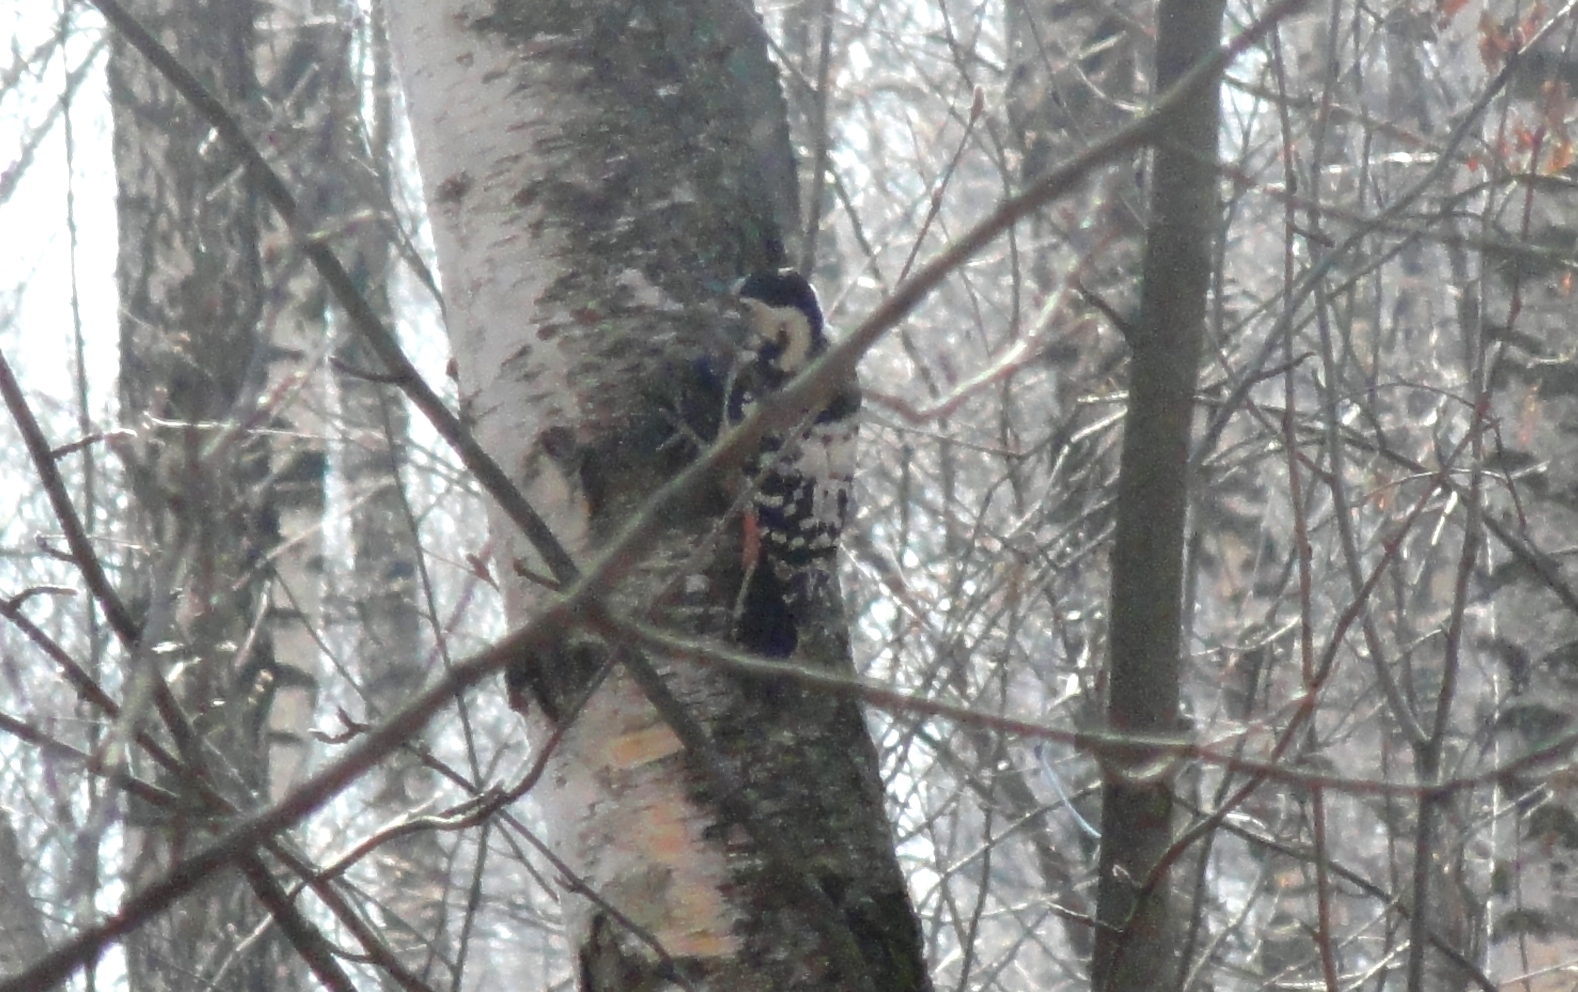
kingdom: Animalia
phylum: Chordata
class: Aves
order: Piciformes
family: Picidae
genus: Dendrocopos
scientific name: Dendrocopos leucotos
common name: White-backed woodpecker
